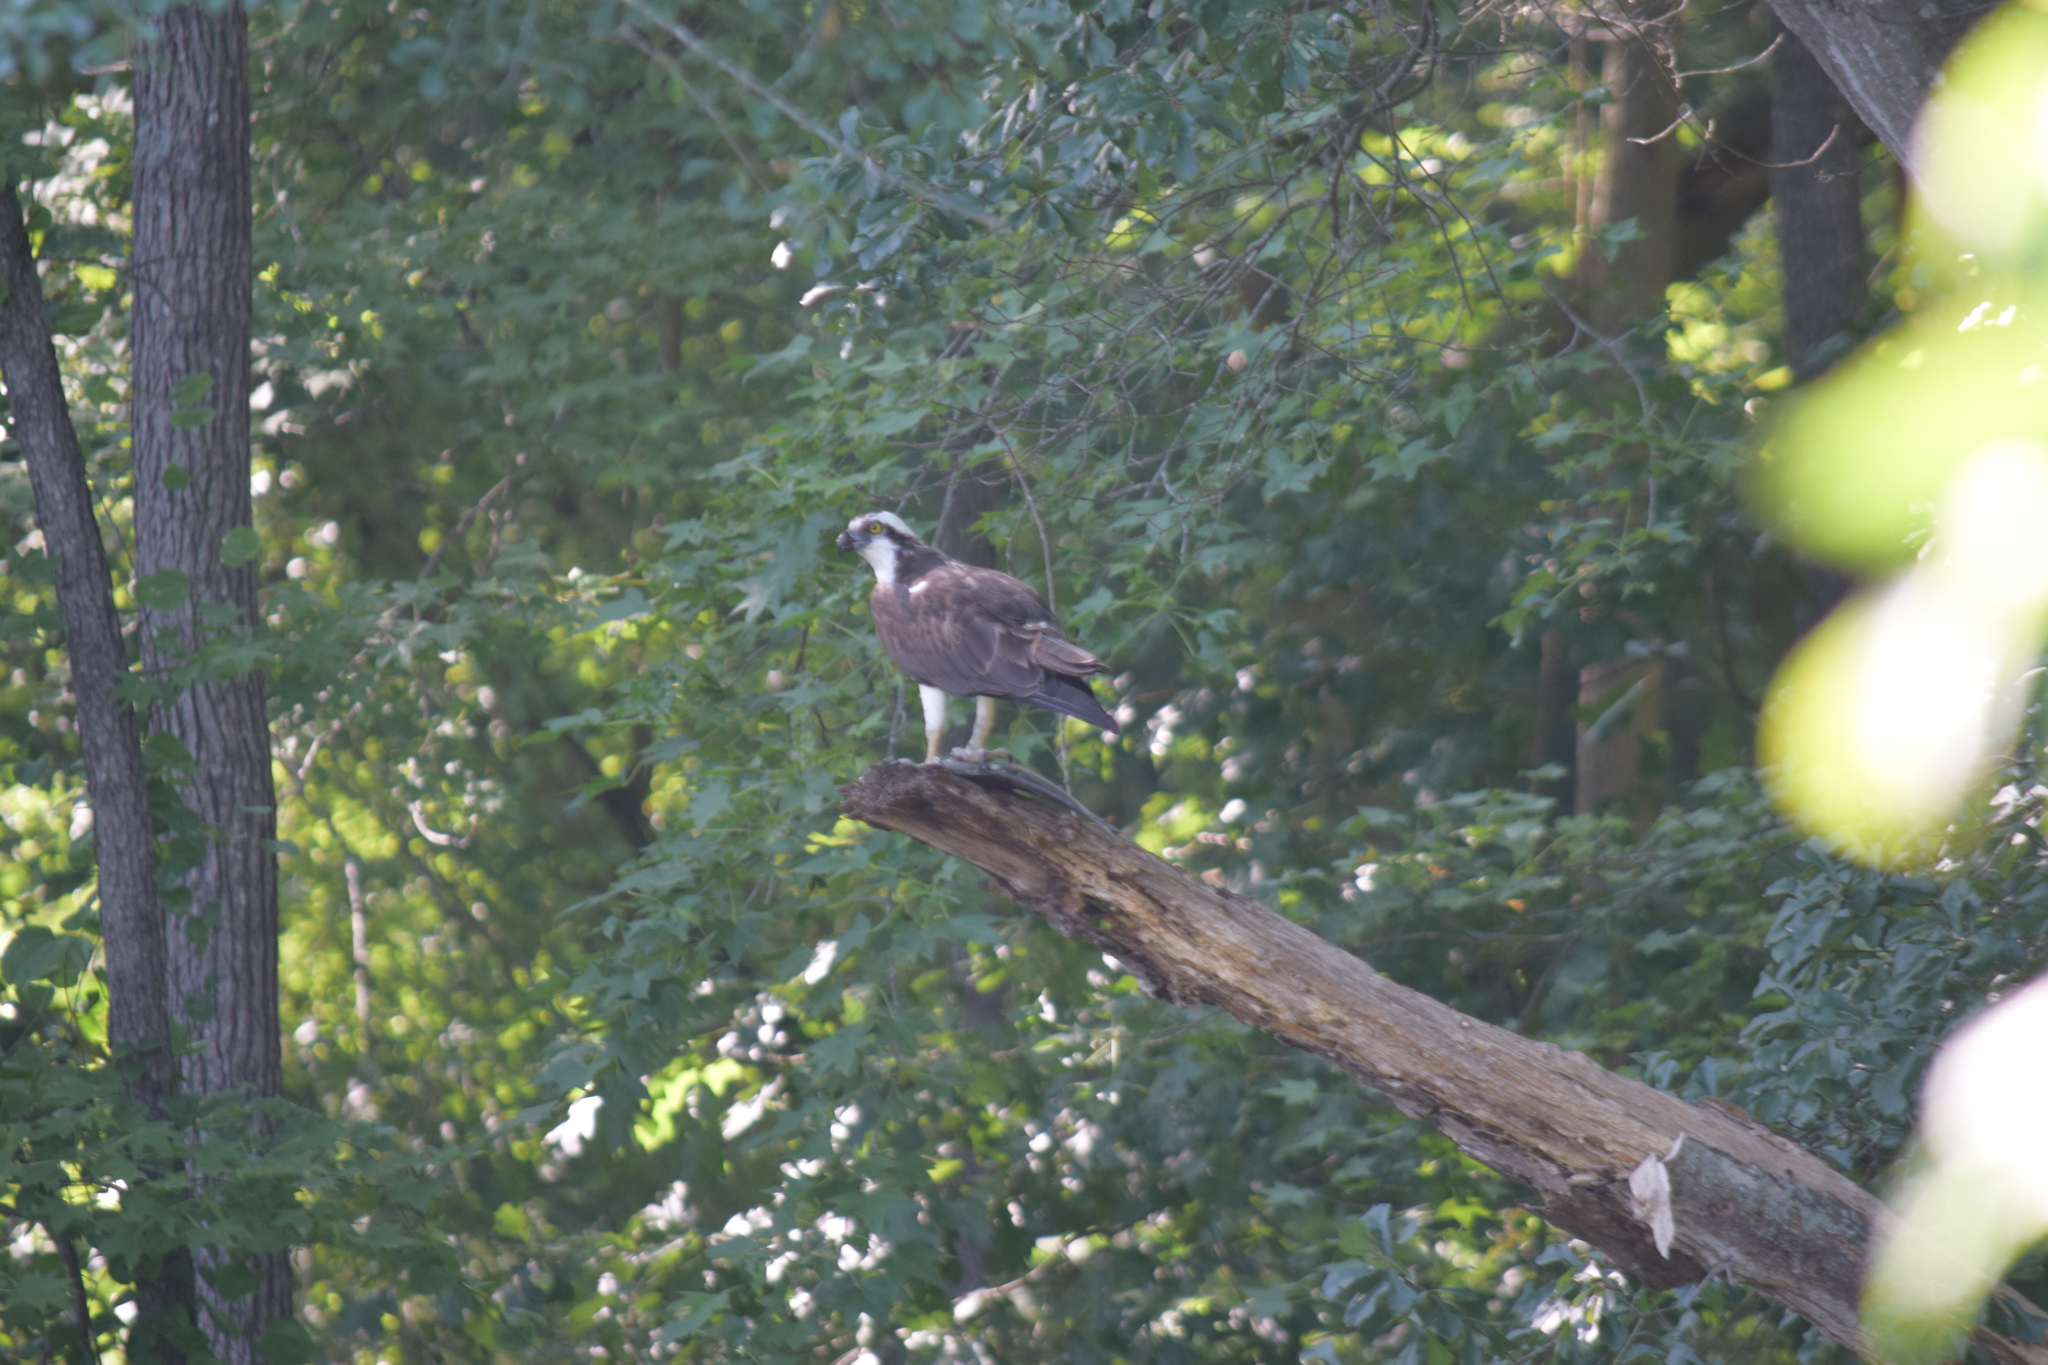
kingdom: Animalia
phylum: Chordata
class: Aves
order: Accipitriformes
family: Pandionidae
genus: Pandion
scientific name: Pandion haliaetus
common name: Osprey
